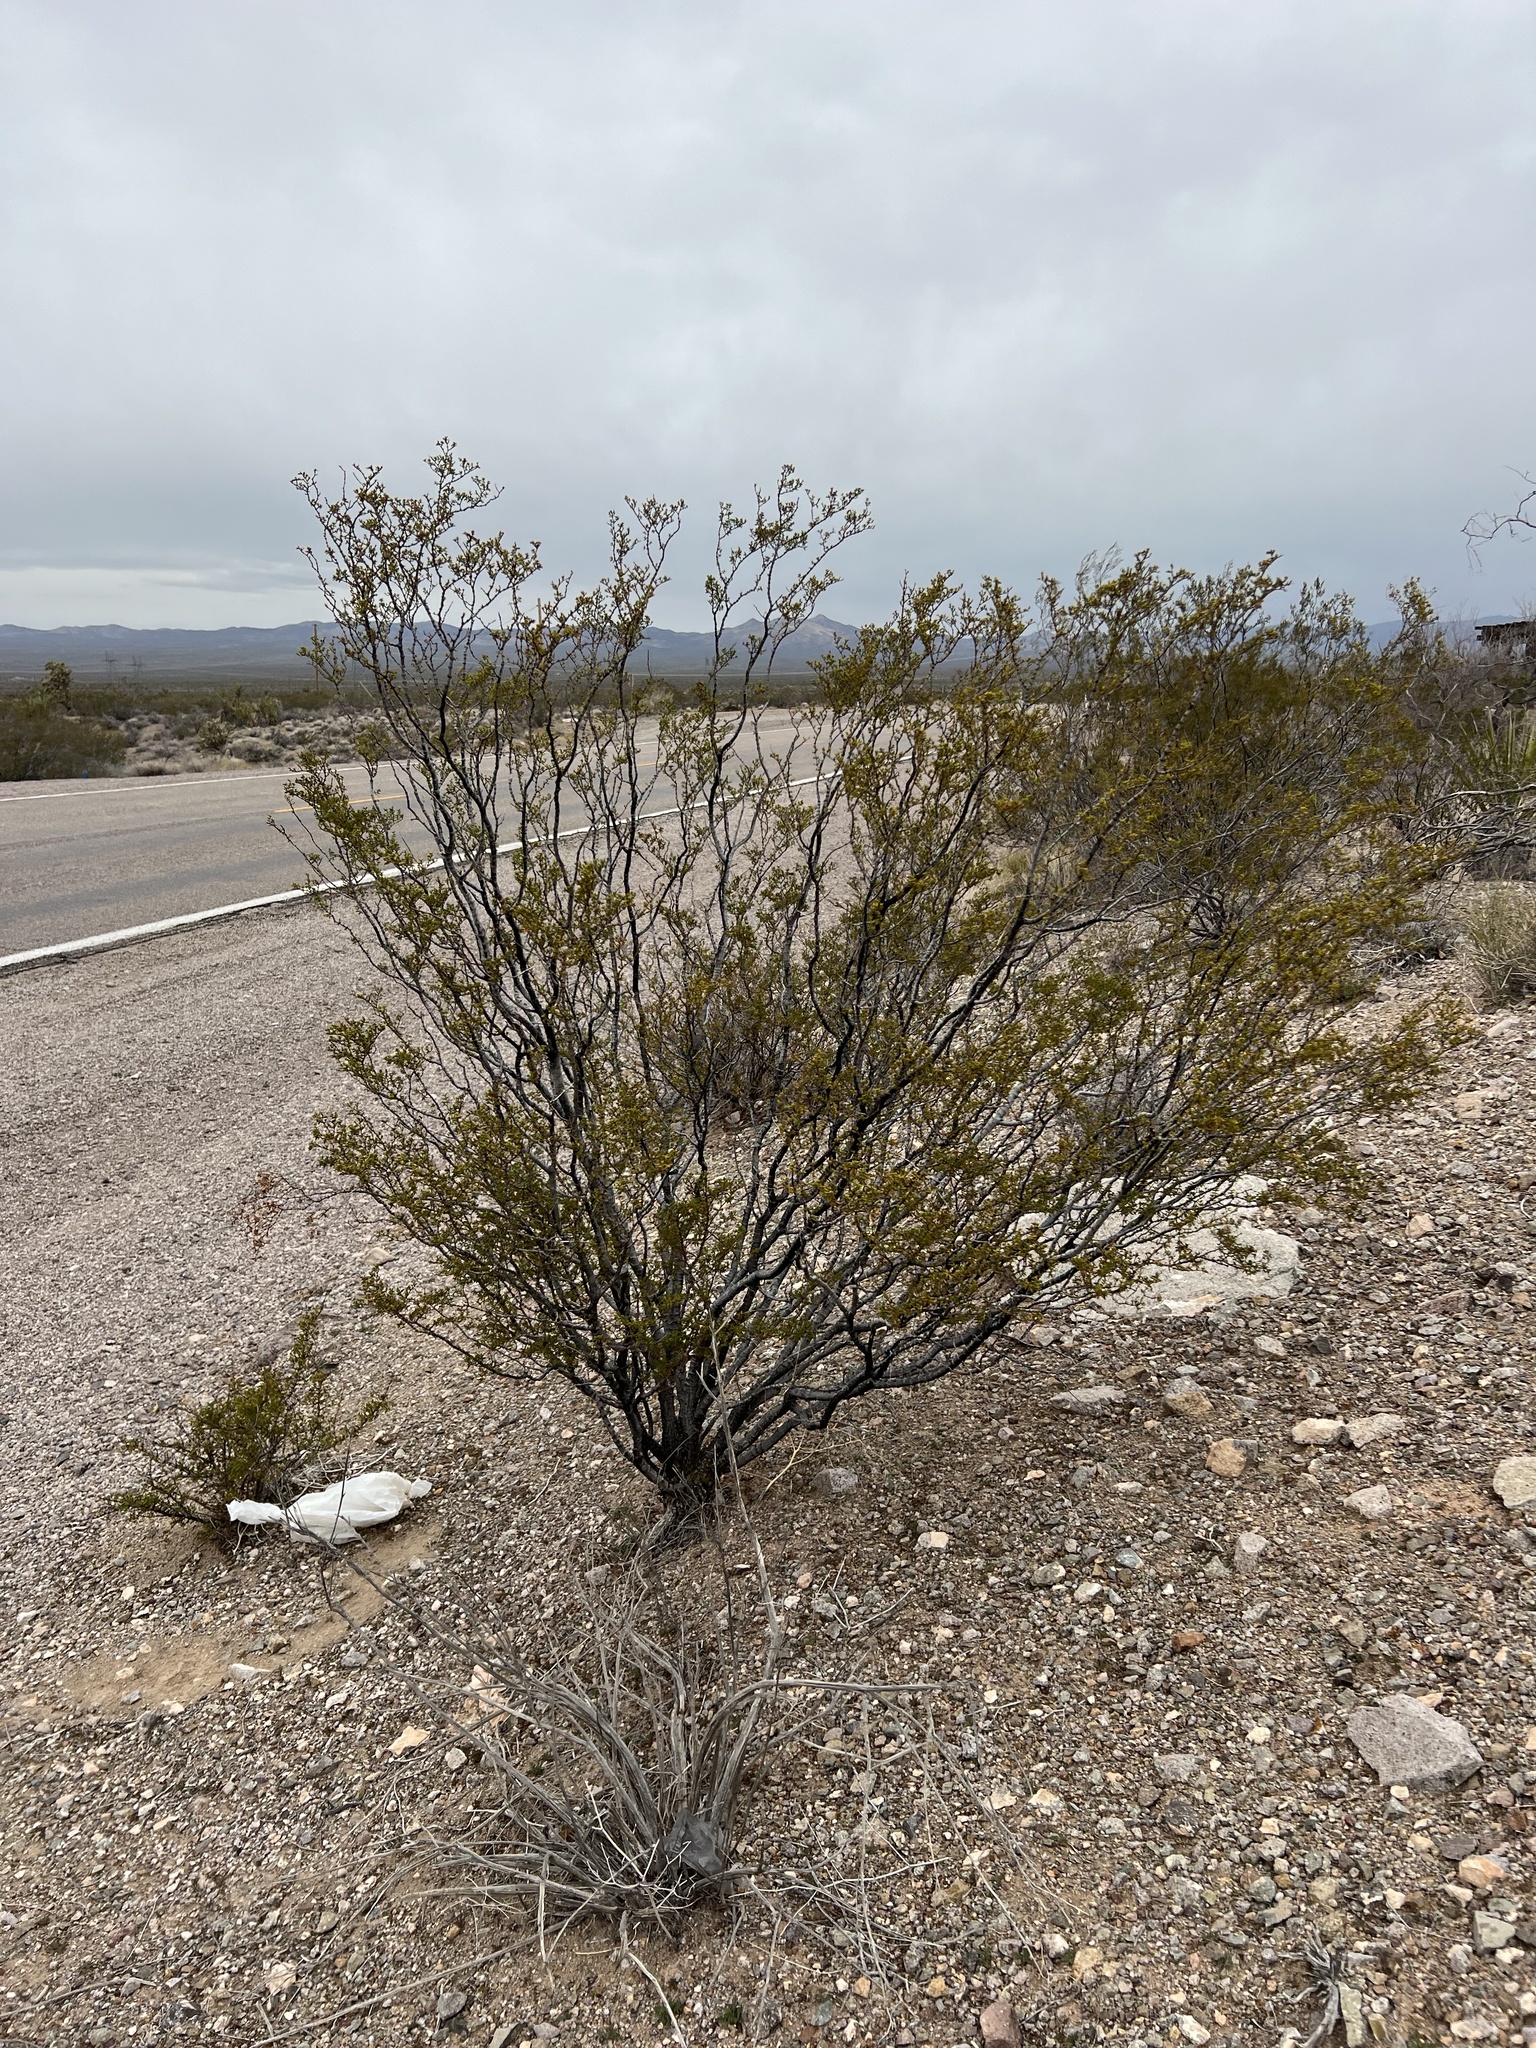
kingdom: Plantae
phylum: Tracheophyta
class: Magnoliopsida
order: Zygophyllales
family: Zygophyllaceae
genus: Larrea
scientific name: Larrea tridentata
